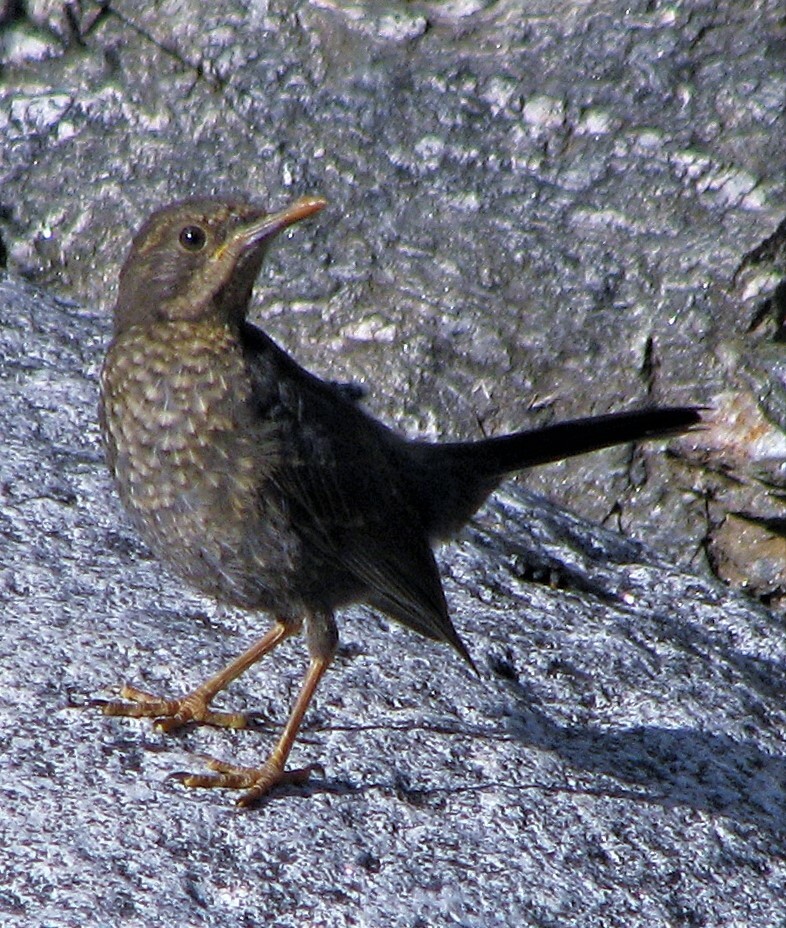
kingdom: Animalia
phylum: Chordata
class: Aves
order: Passeriformes
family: Turdidae
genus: Turdus
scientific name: Turdus chiguanco
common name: Chiguanco thrush
